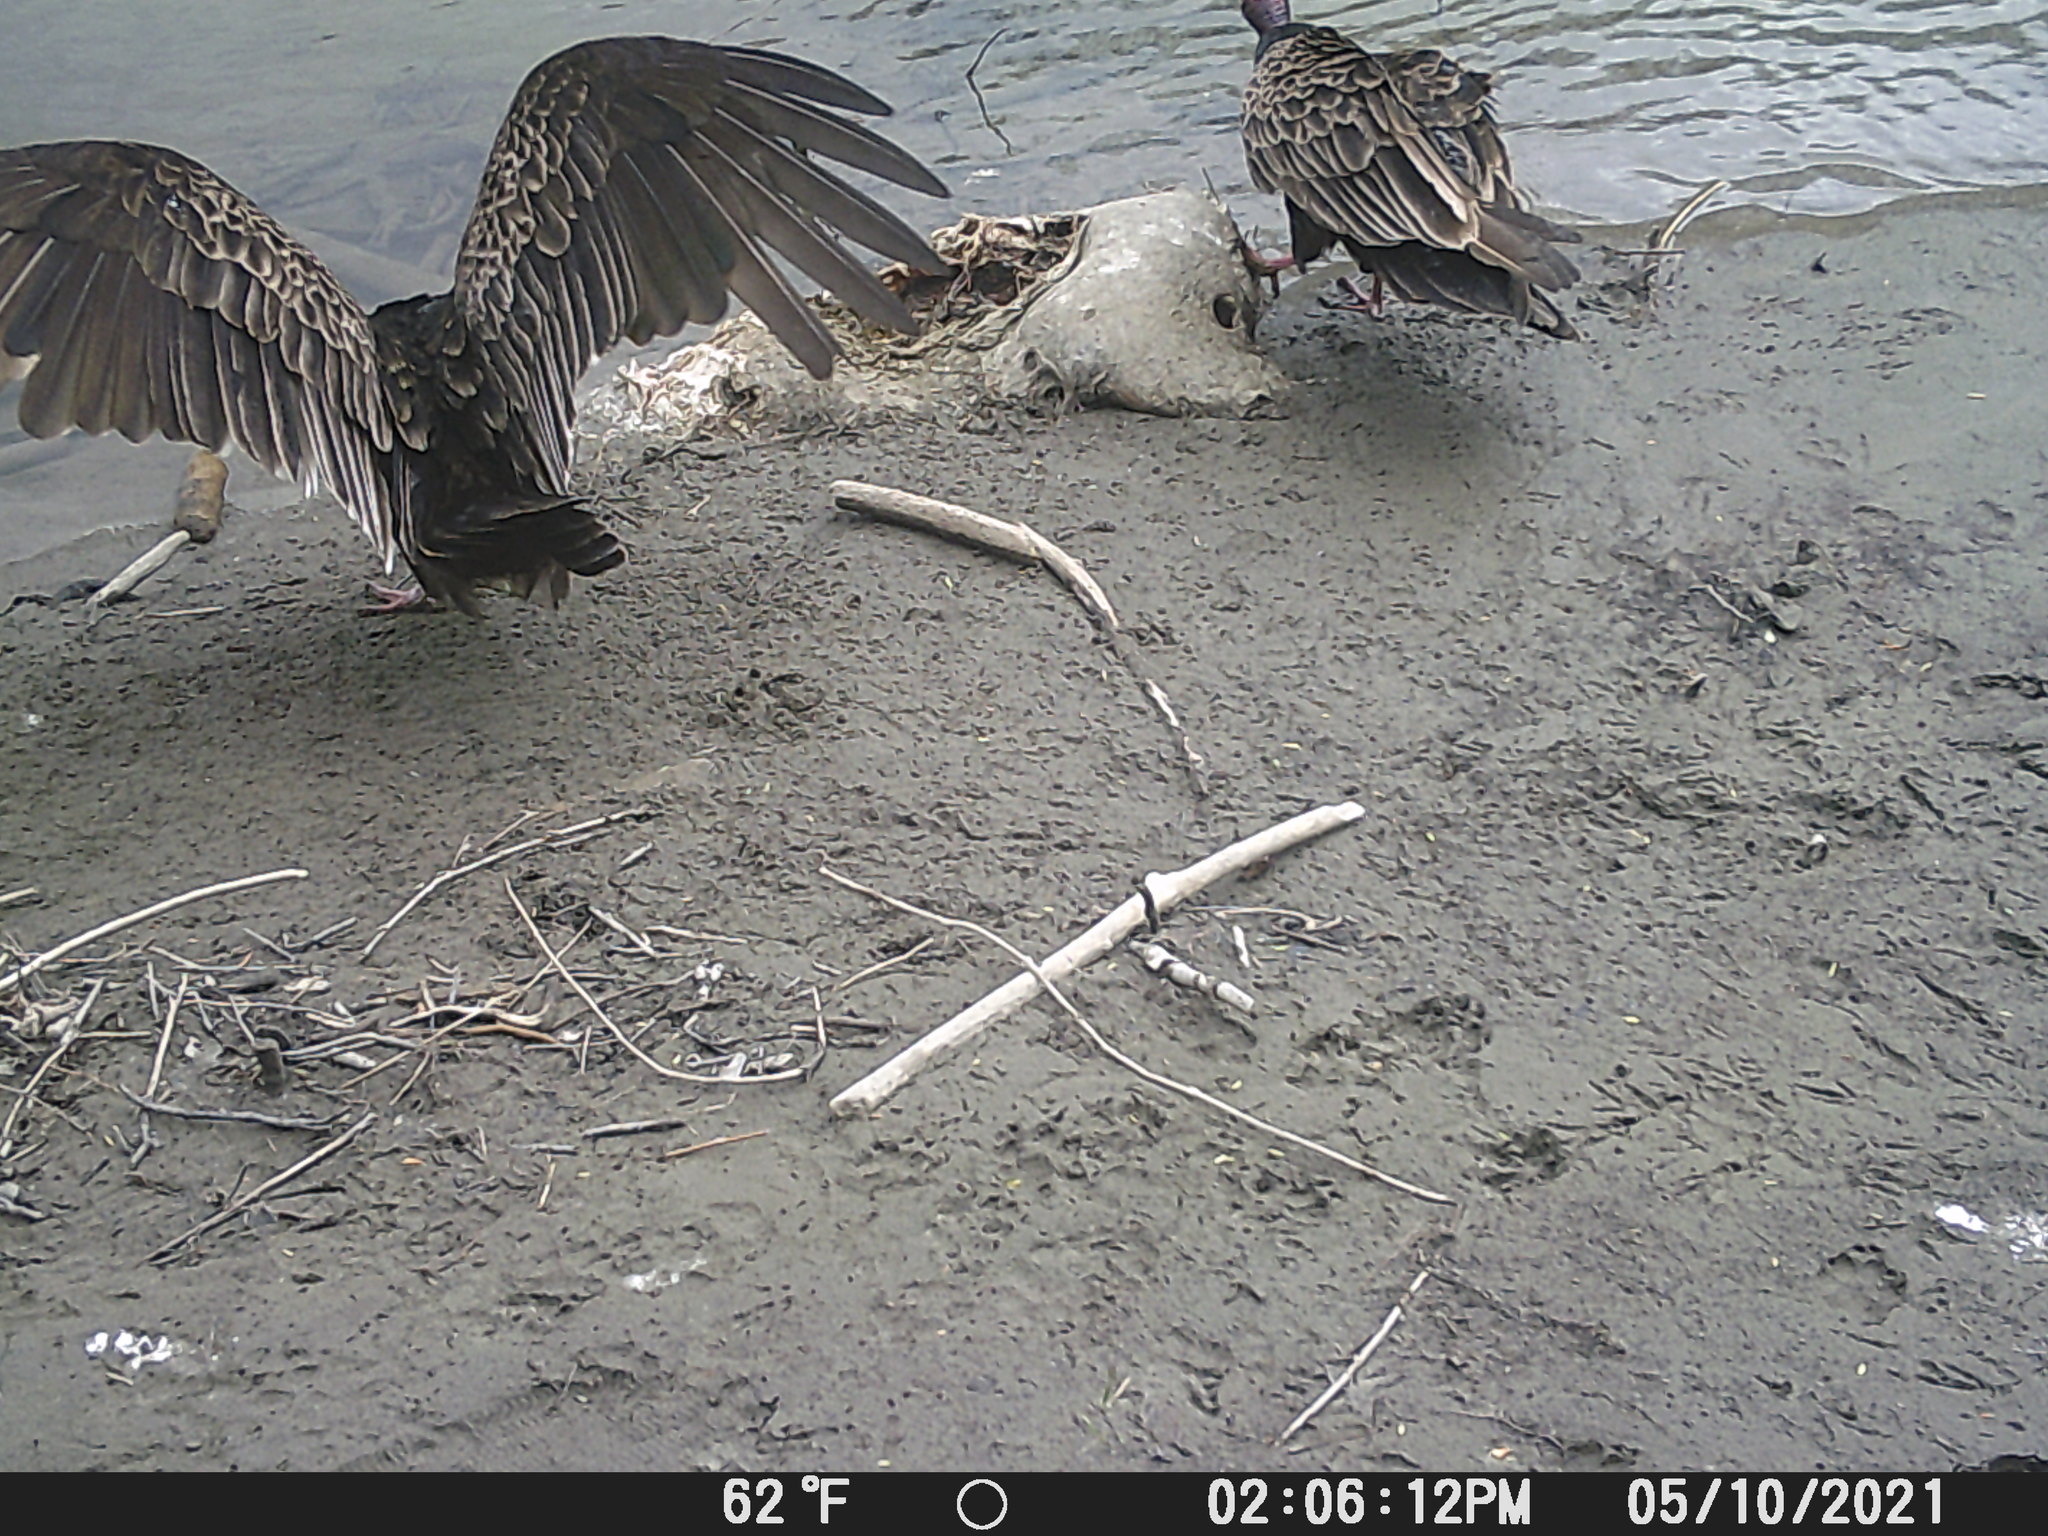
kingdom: Animalia
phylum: Chordata
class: Aves
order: Accipitriformes
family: Cathartidae
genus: Cathartes
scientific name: Cathartes aura
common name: Turkey vulture
